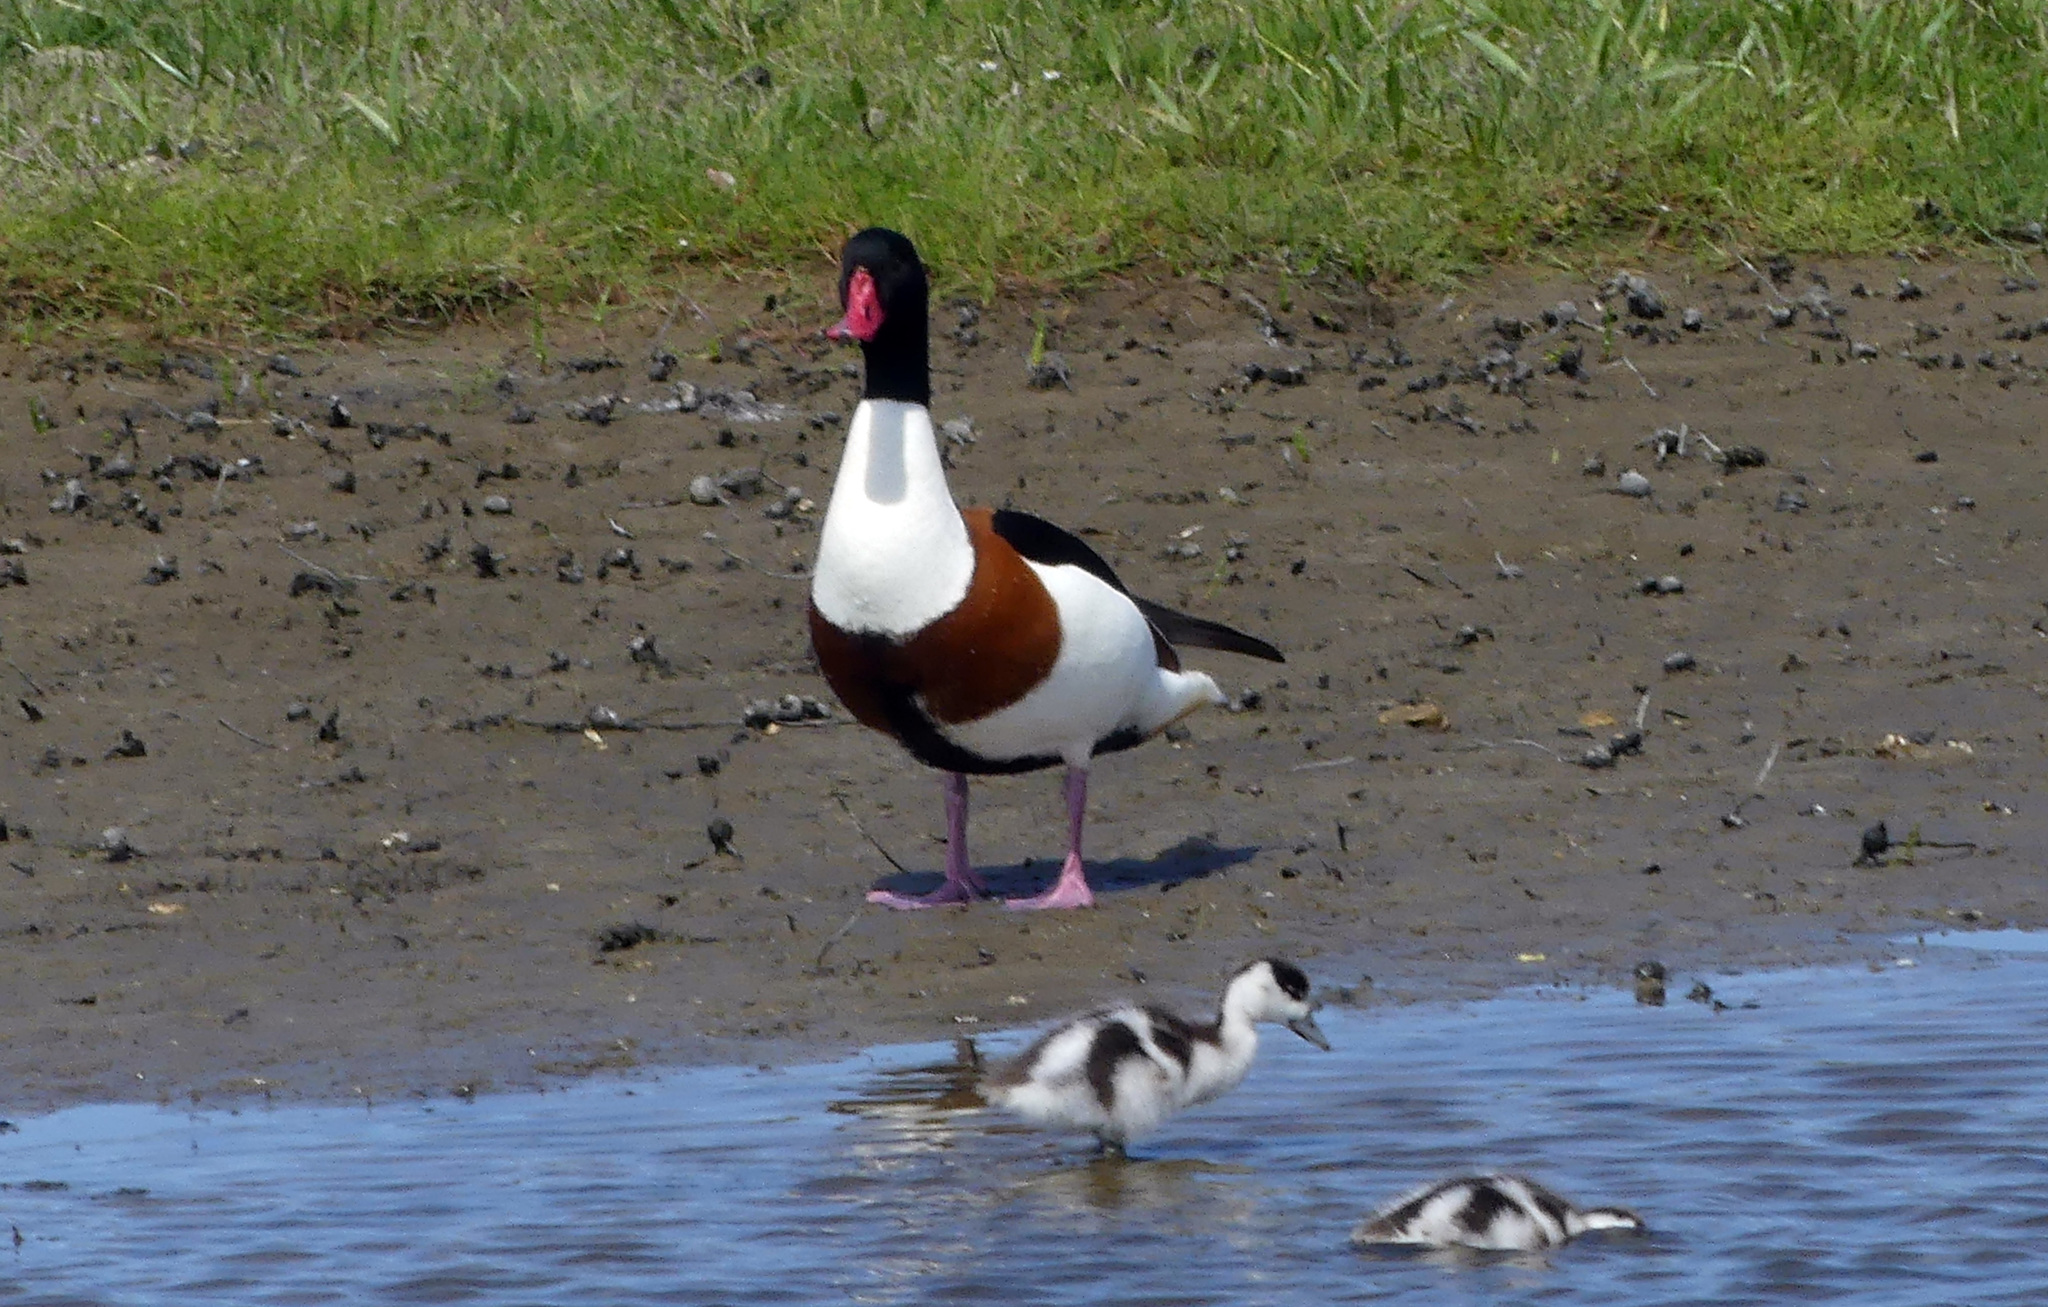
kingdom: Animalia
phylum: Chordata
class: Aves
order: Anseriformes
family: Anatidae
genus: Tadorna
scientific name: Tadorna tadorna
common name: Common shelduck
